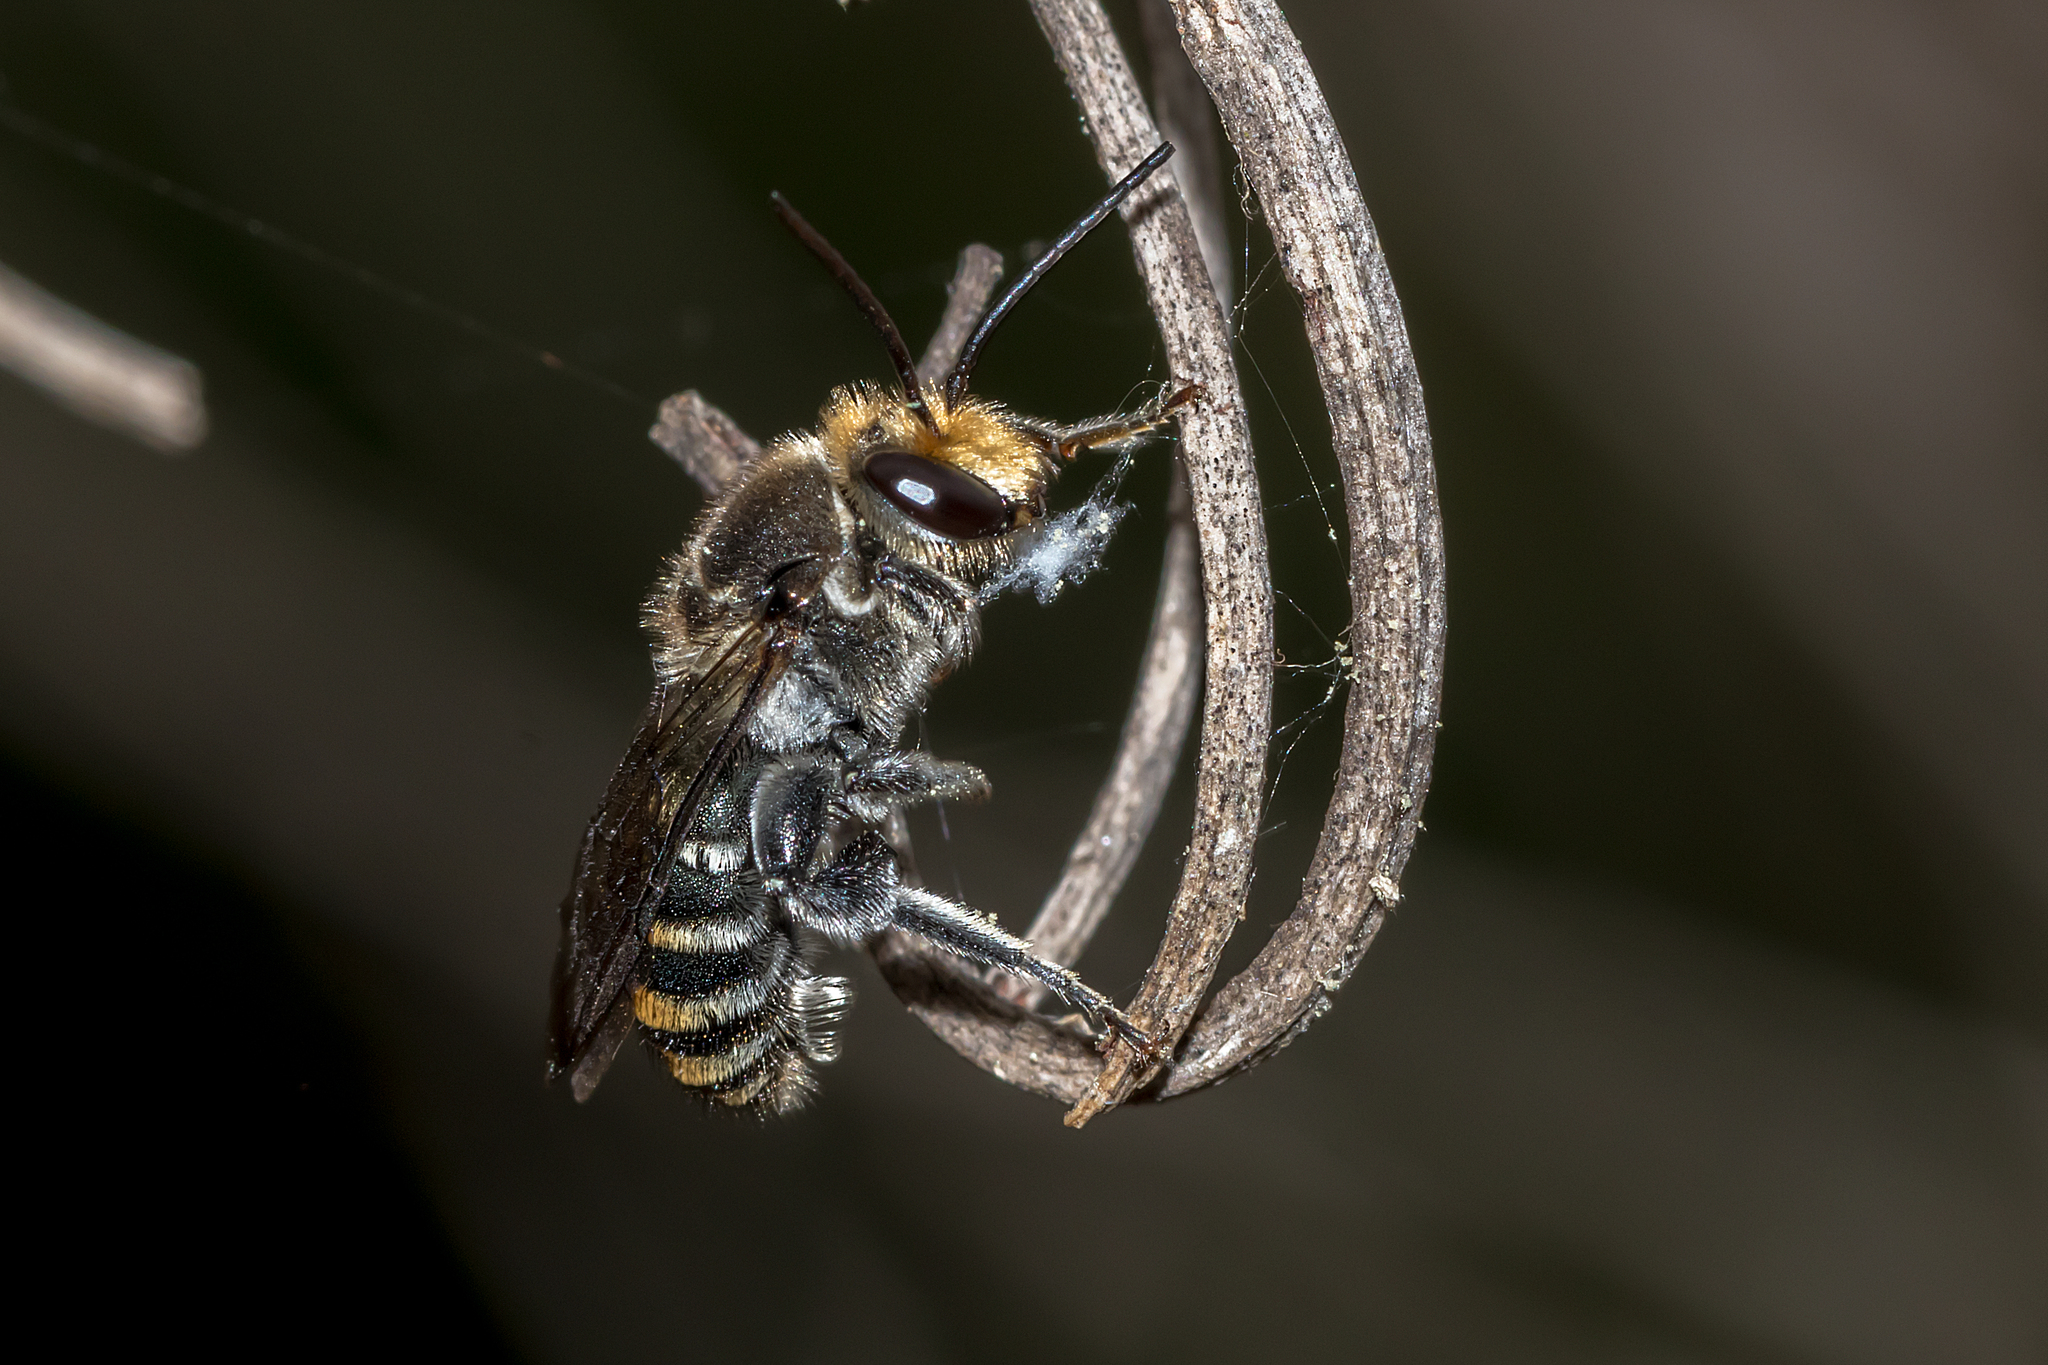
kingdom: Animalia
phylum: Arthropoda
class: Insecta
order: Hymenoptera
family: Halictidae
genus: Lipotriches
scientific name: Lipotriches australica
